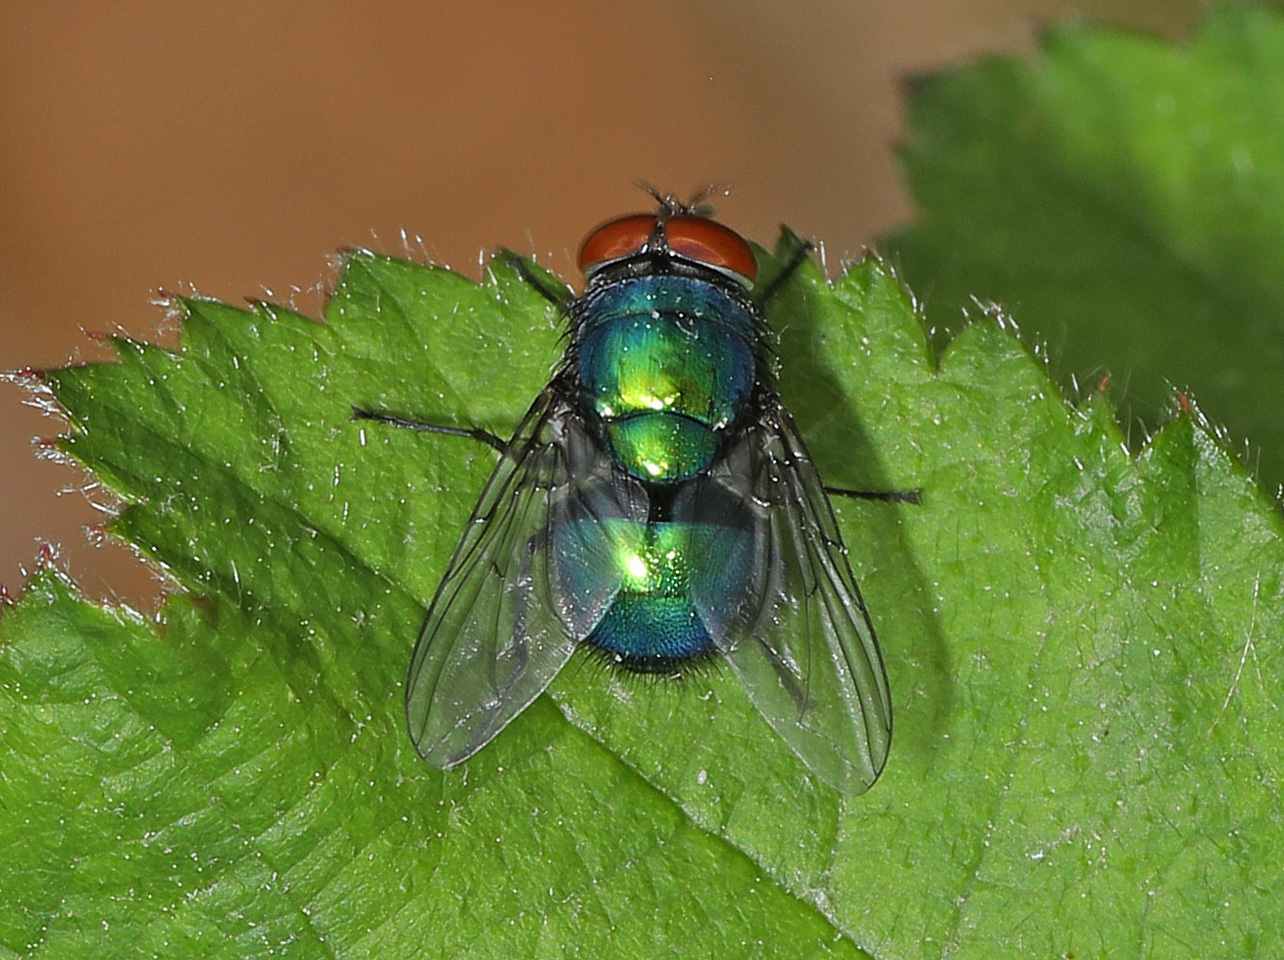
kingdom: Animalia
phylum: Arthropoda
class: Insecta
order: Diptera
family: Calliphoridae
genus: Lucilia
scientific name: Lucilia caeruleiviridis
